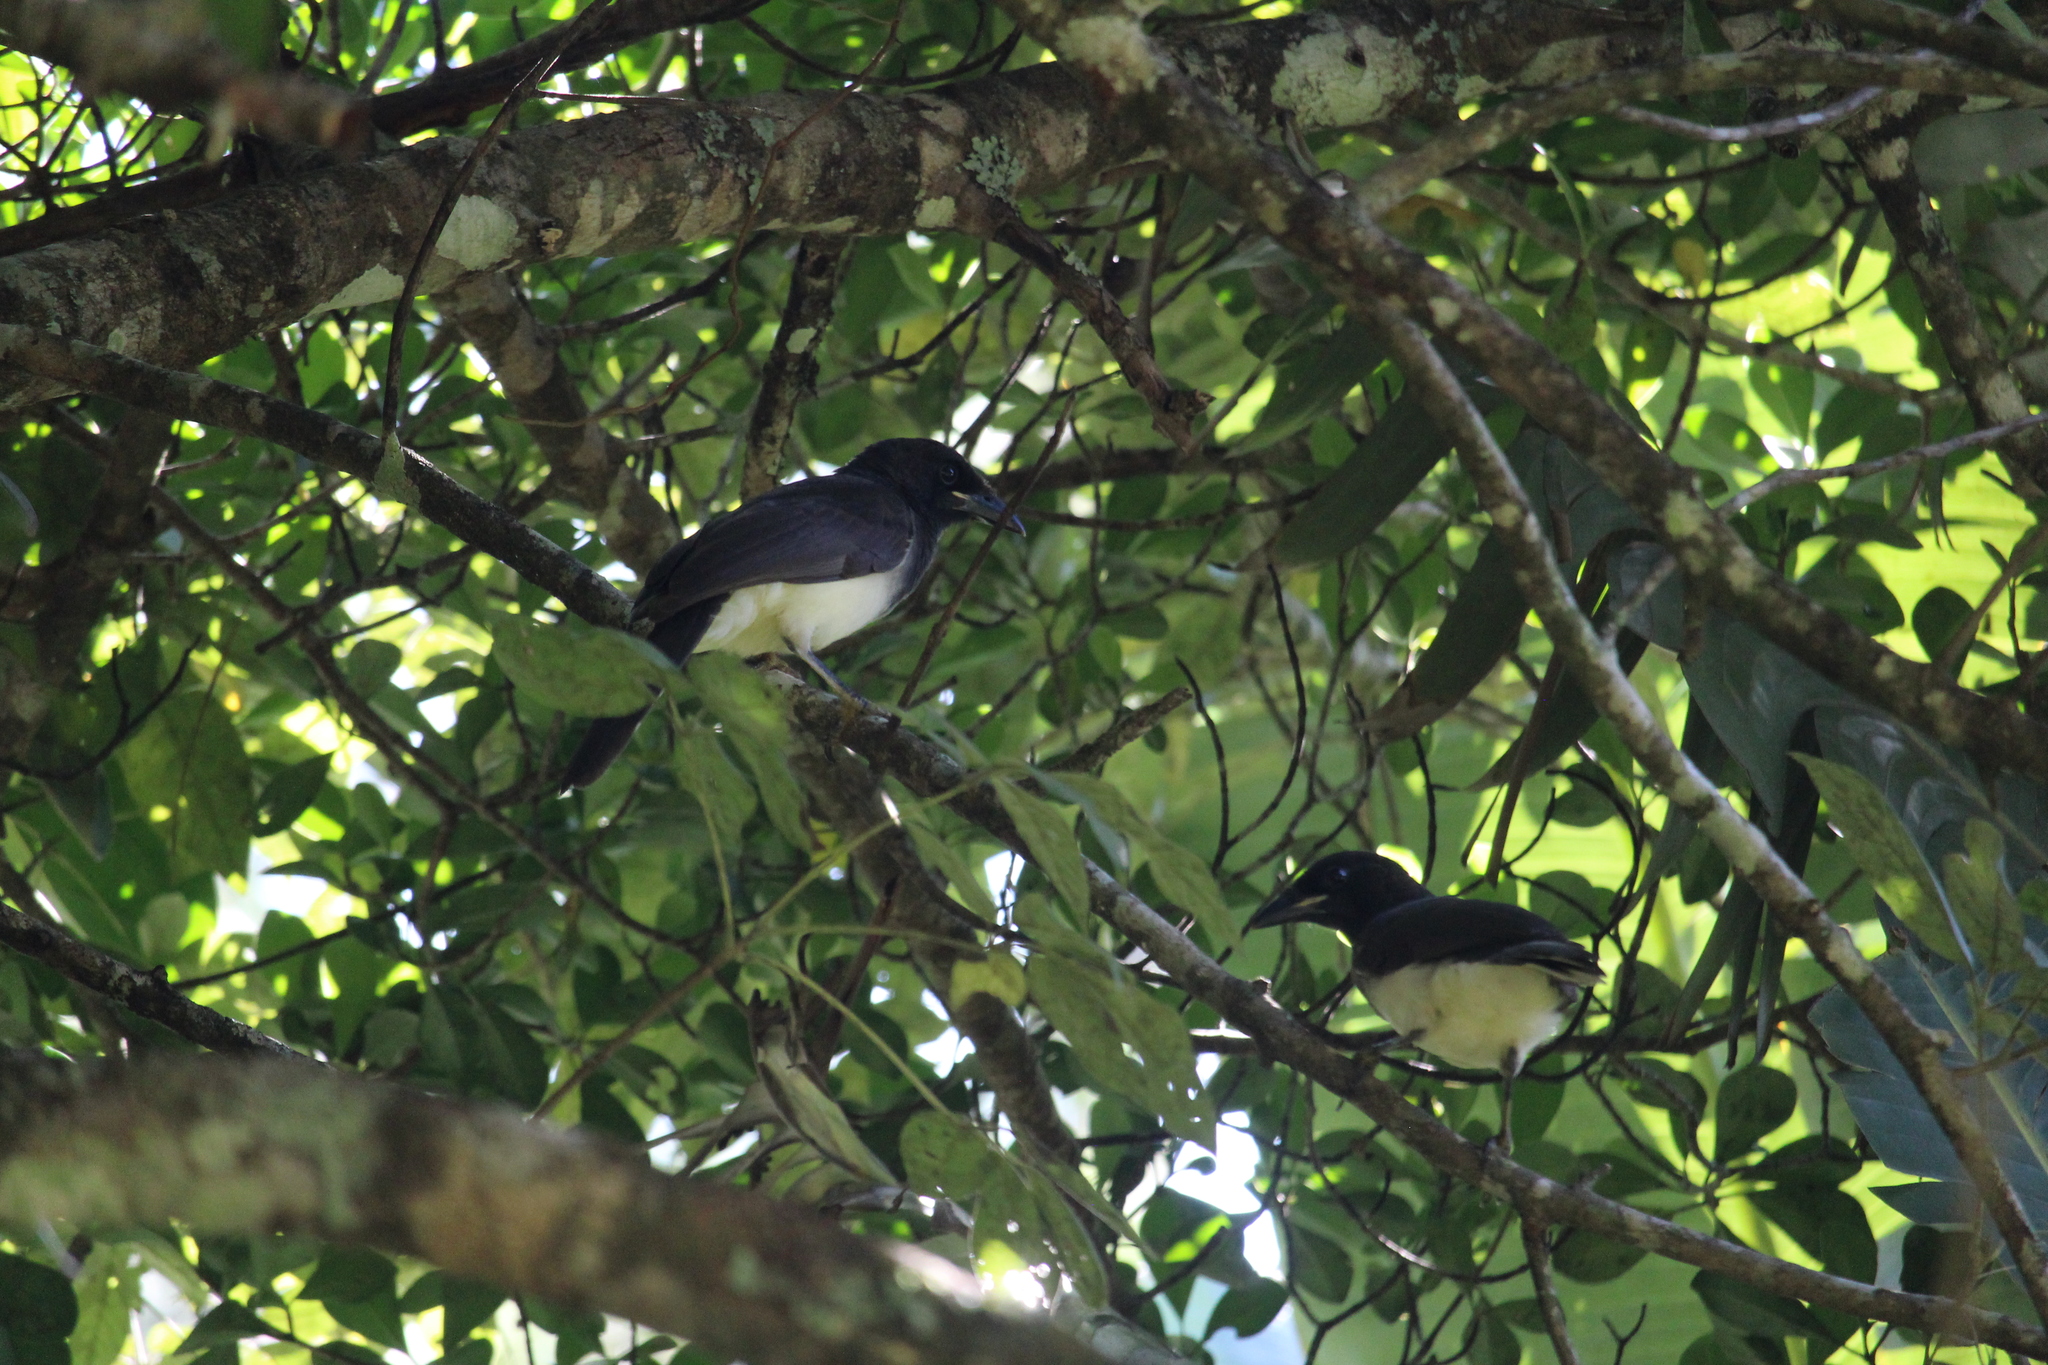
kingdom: Animalia
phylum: Chordata
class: Aves
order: Passeriformes
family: Corvidae
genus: Psilorhinus
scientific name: Psilorhinus morio
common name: Brown jay
